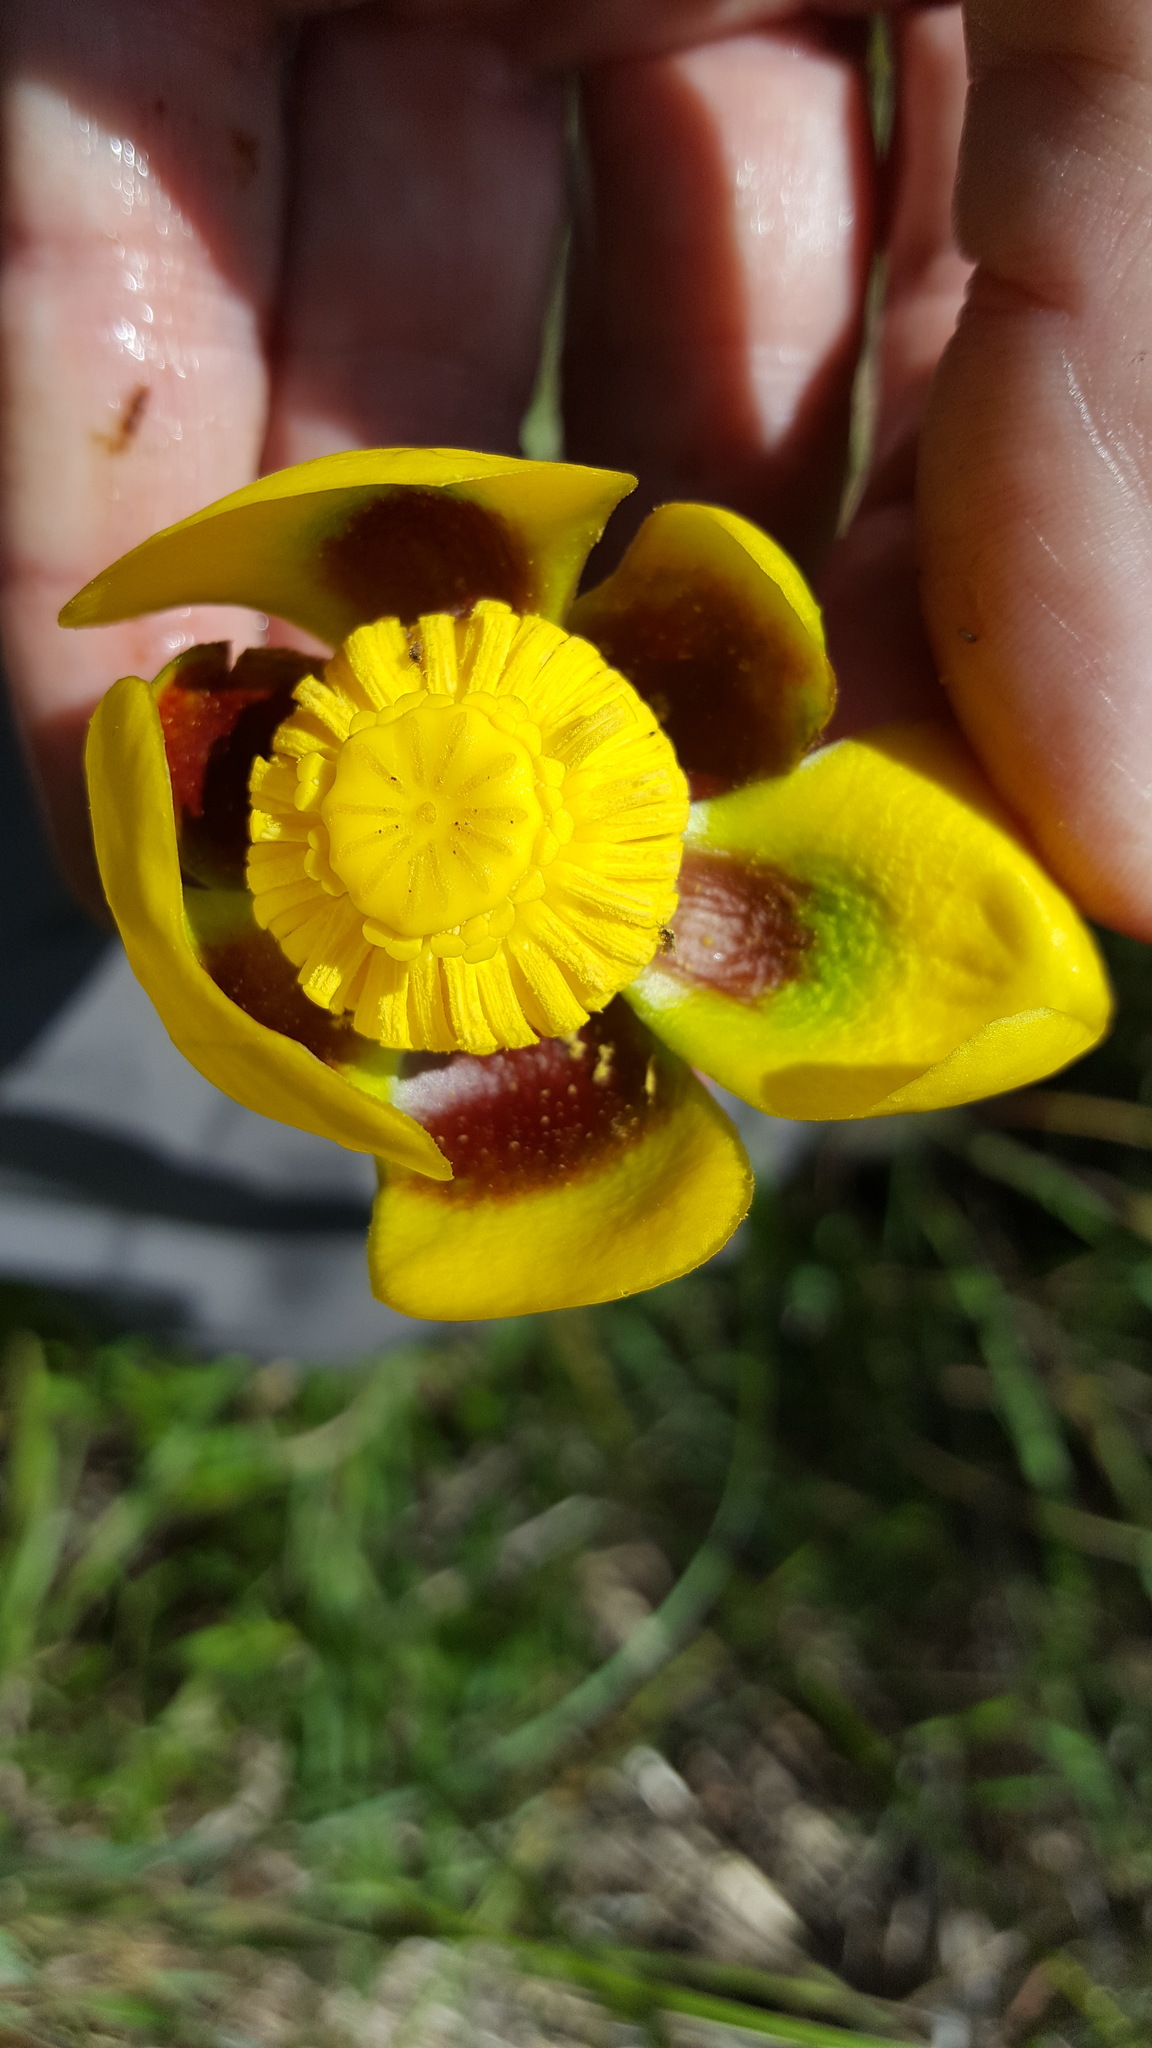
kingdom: Plantae
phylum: Tracheophyta
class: Magnoliopsida
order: Nymphaeales
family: Nymphaeaceae
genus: Nuphar
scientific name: Nuphar variegata
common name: Beaver-root
